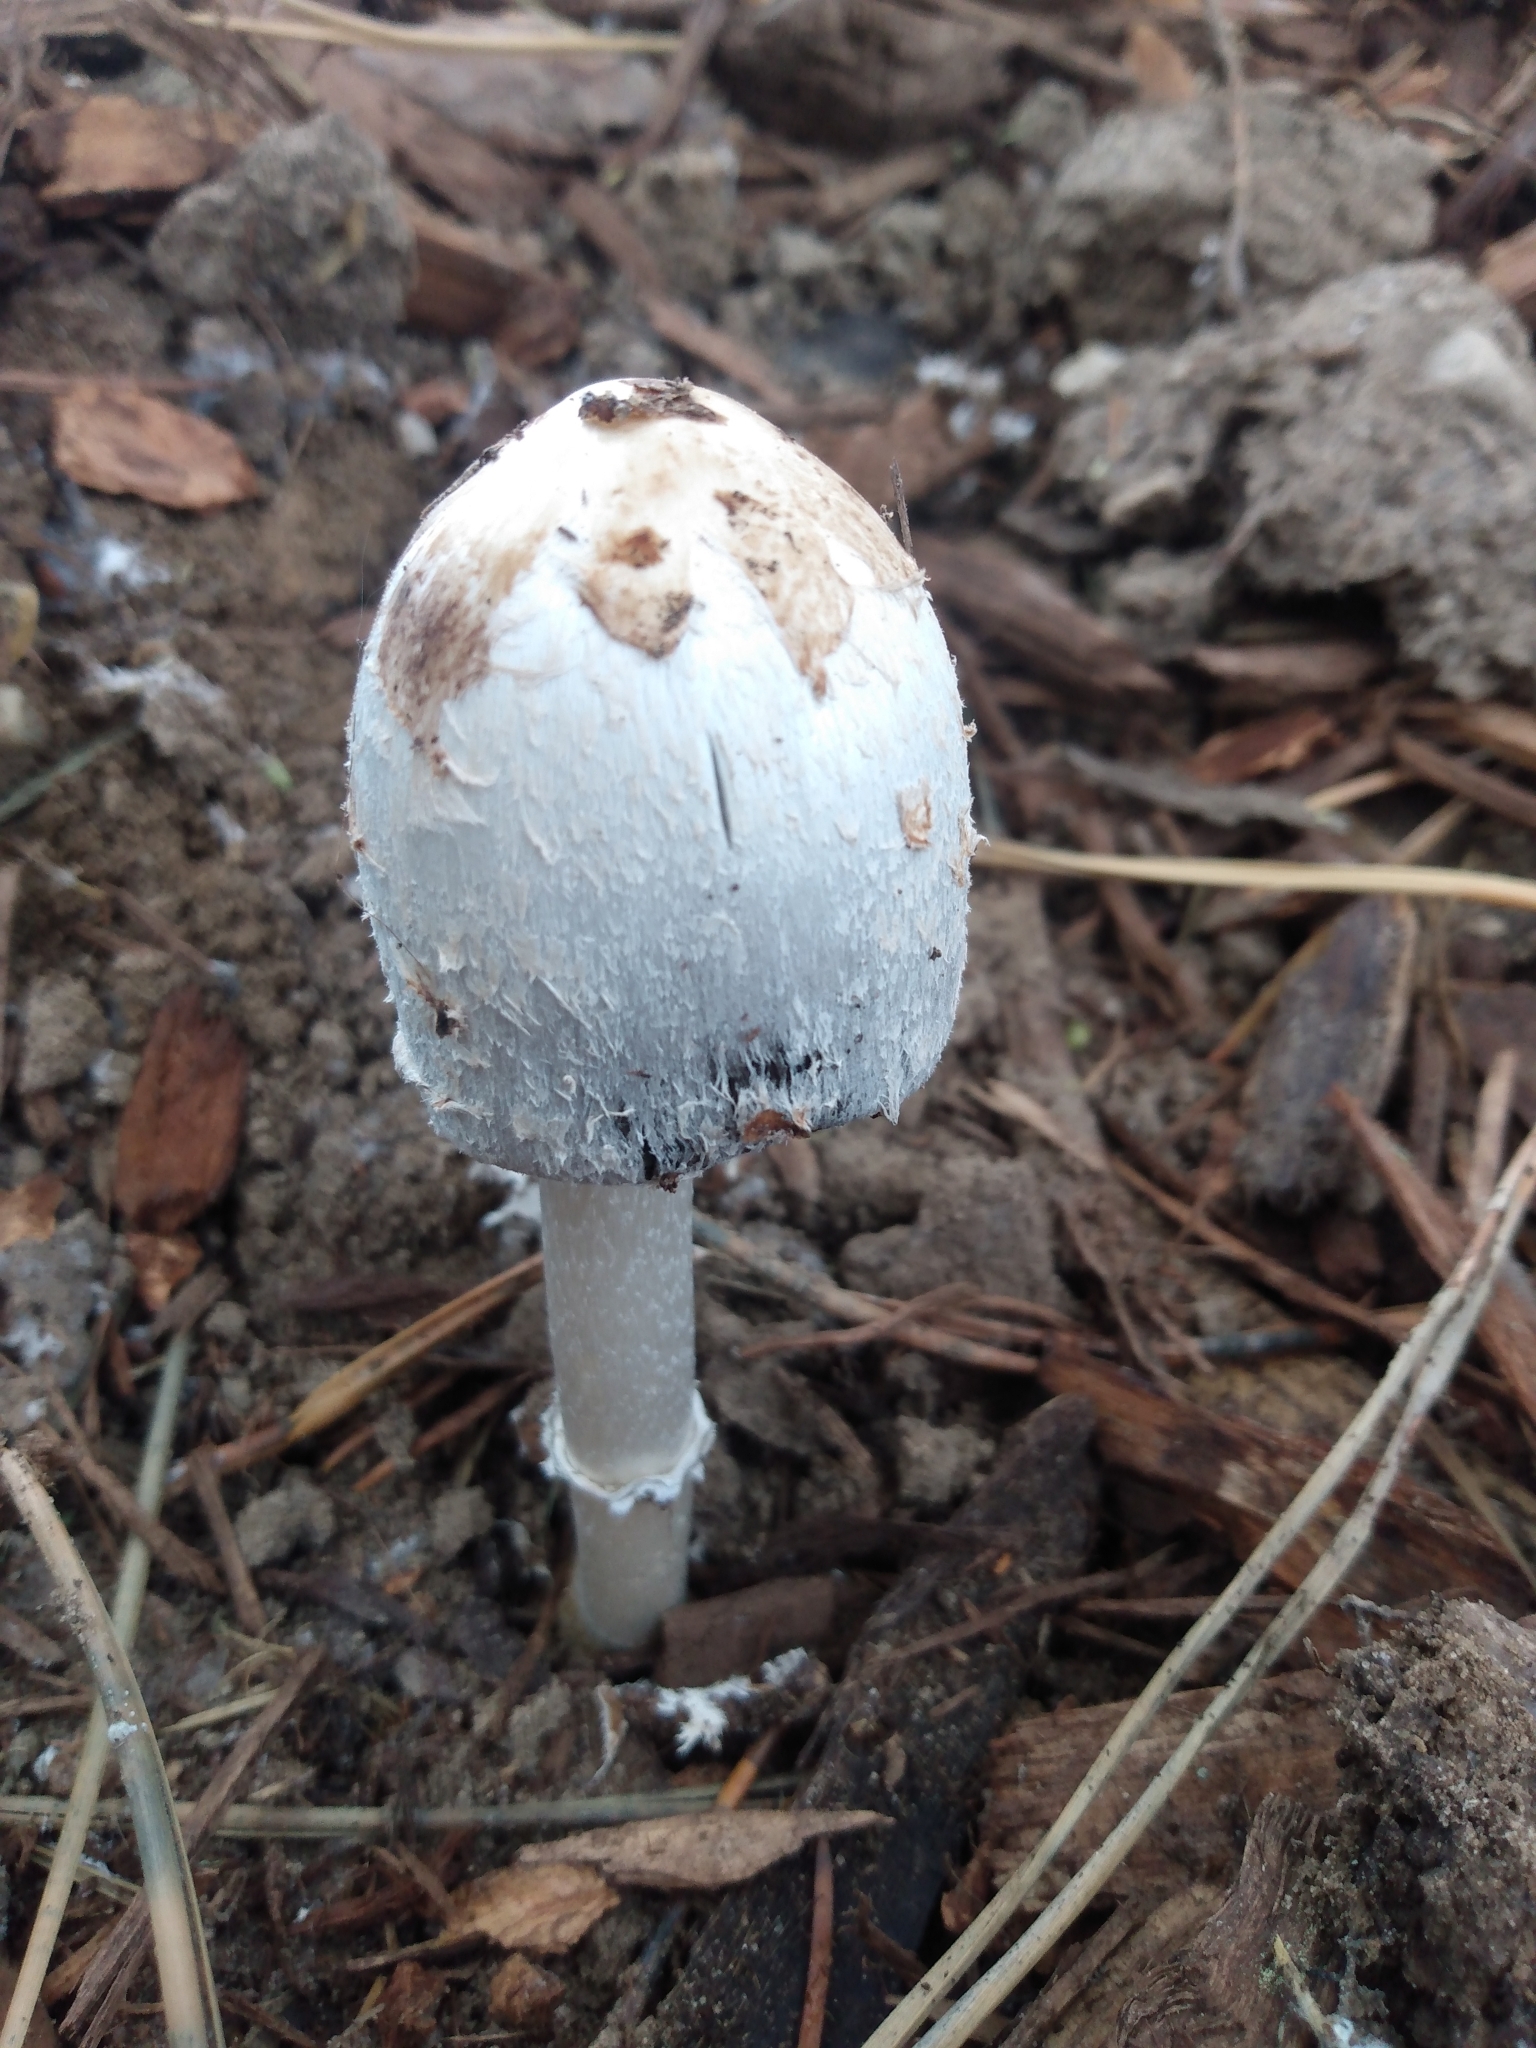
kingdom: Fungi
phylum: Basidiomycota
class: Agaricomycetes
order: Agaricales
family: Agaricaceae
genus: Coprinus
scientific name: Coprinus comatus
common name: Lawyer's wig
